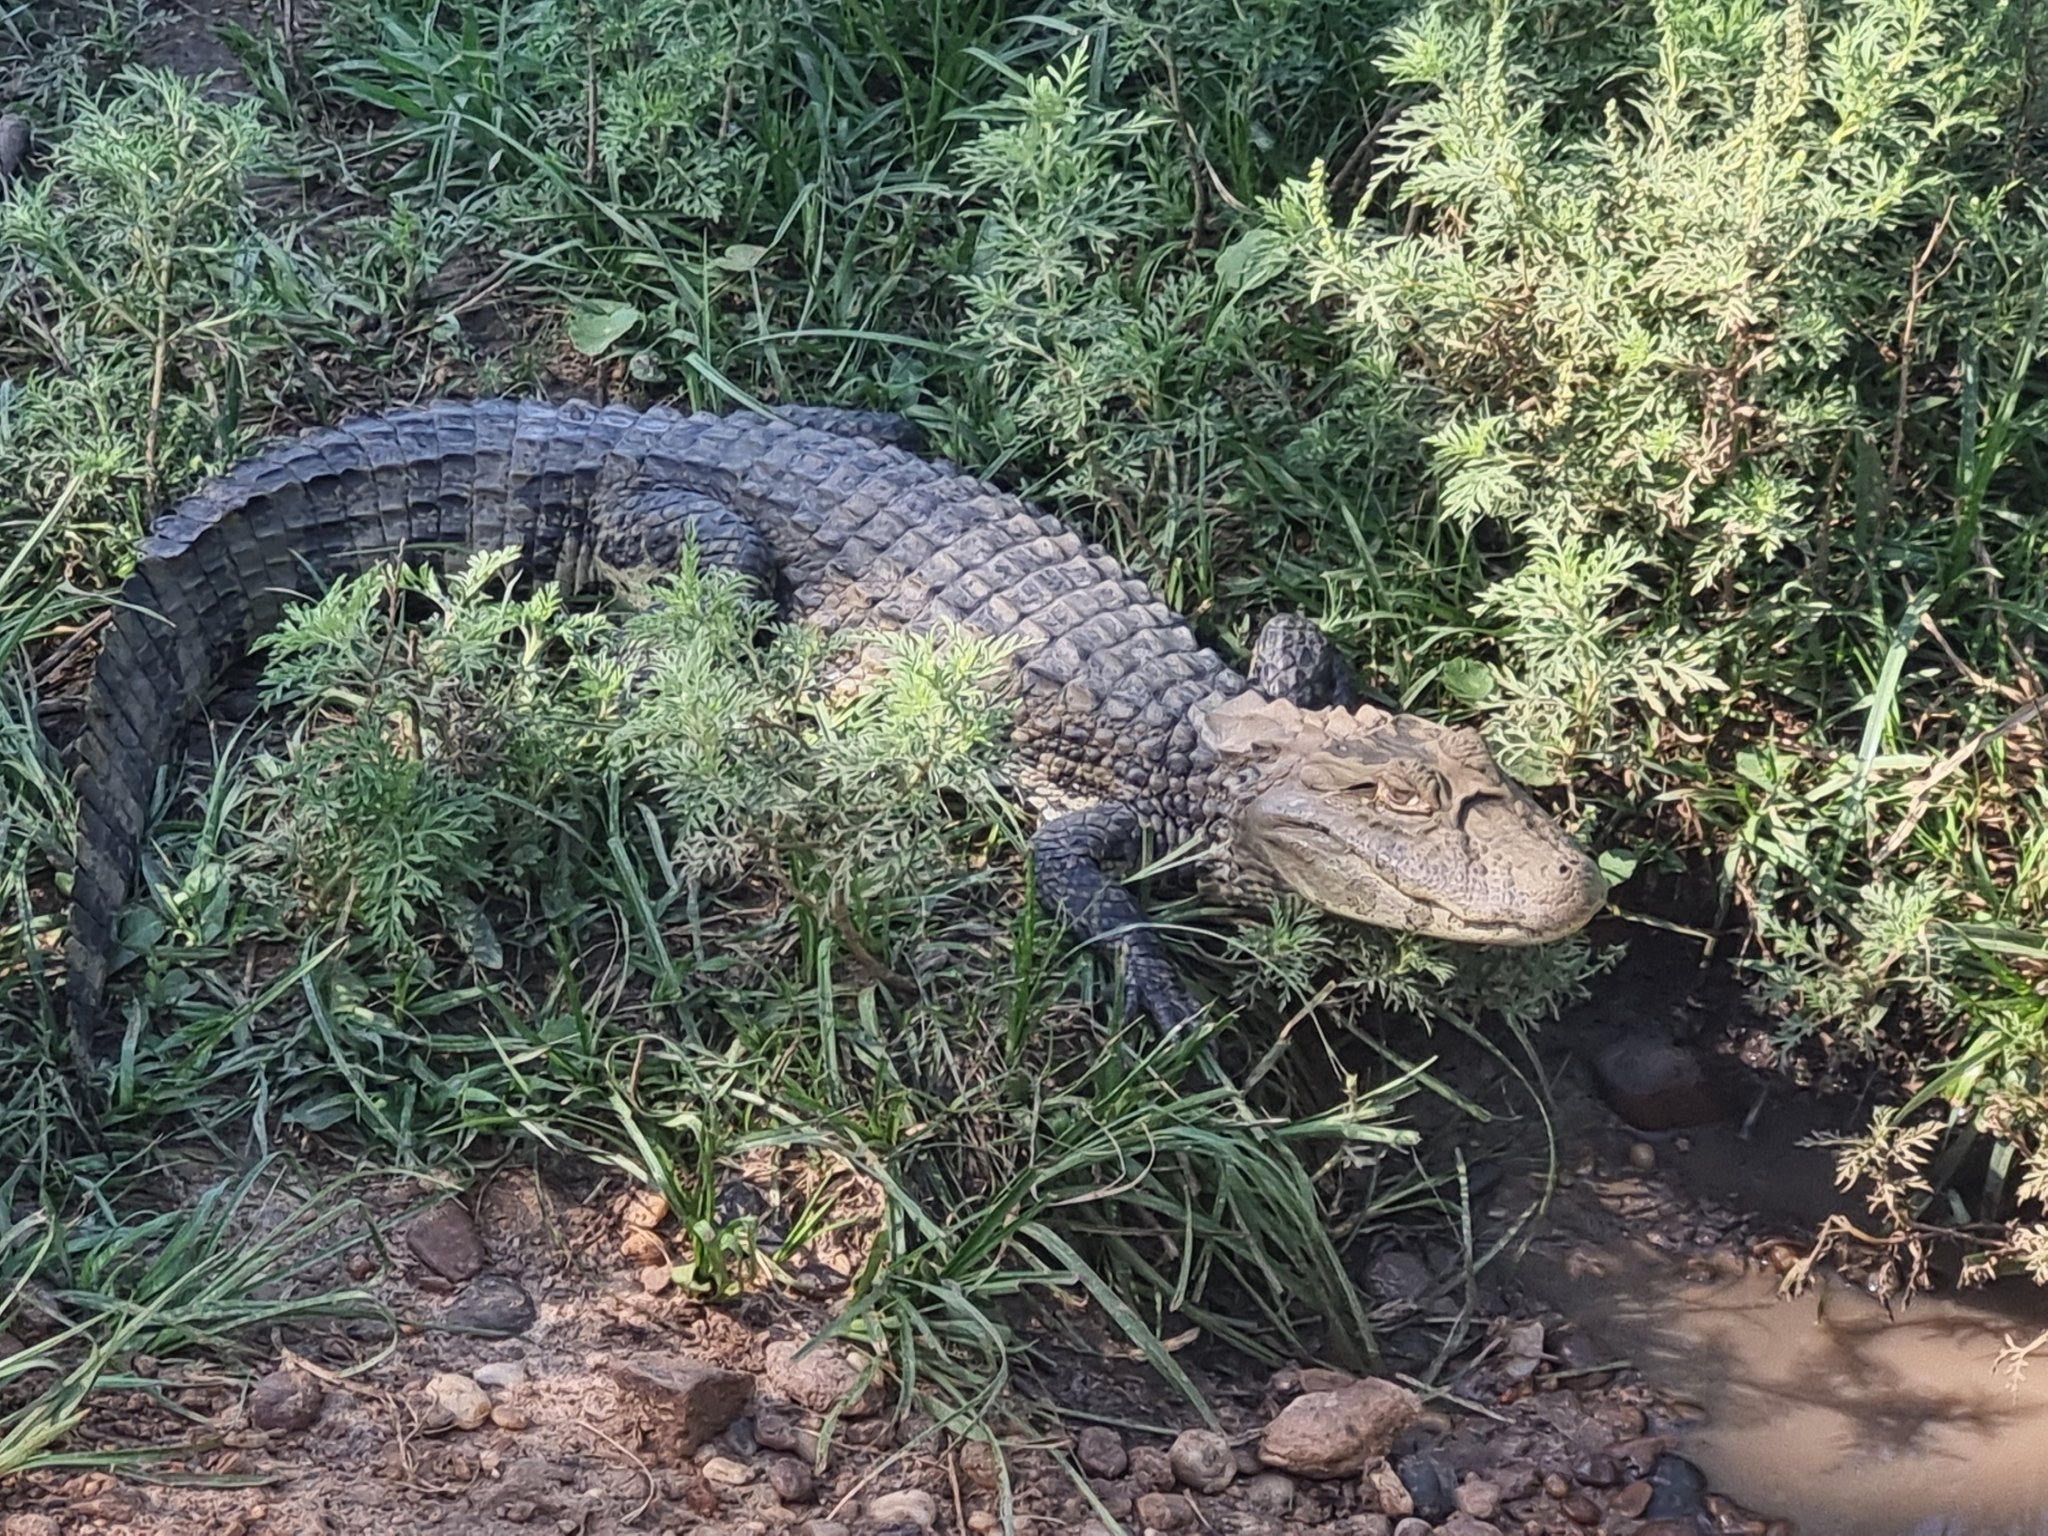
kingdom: Animalia
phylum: Chordata
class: Crocodylia
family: Alligatoridae
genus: Caiman
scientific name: Caiman latirostris
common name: Broad-snouted caiman
